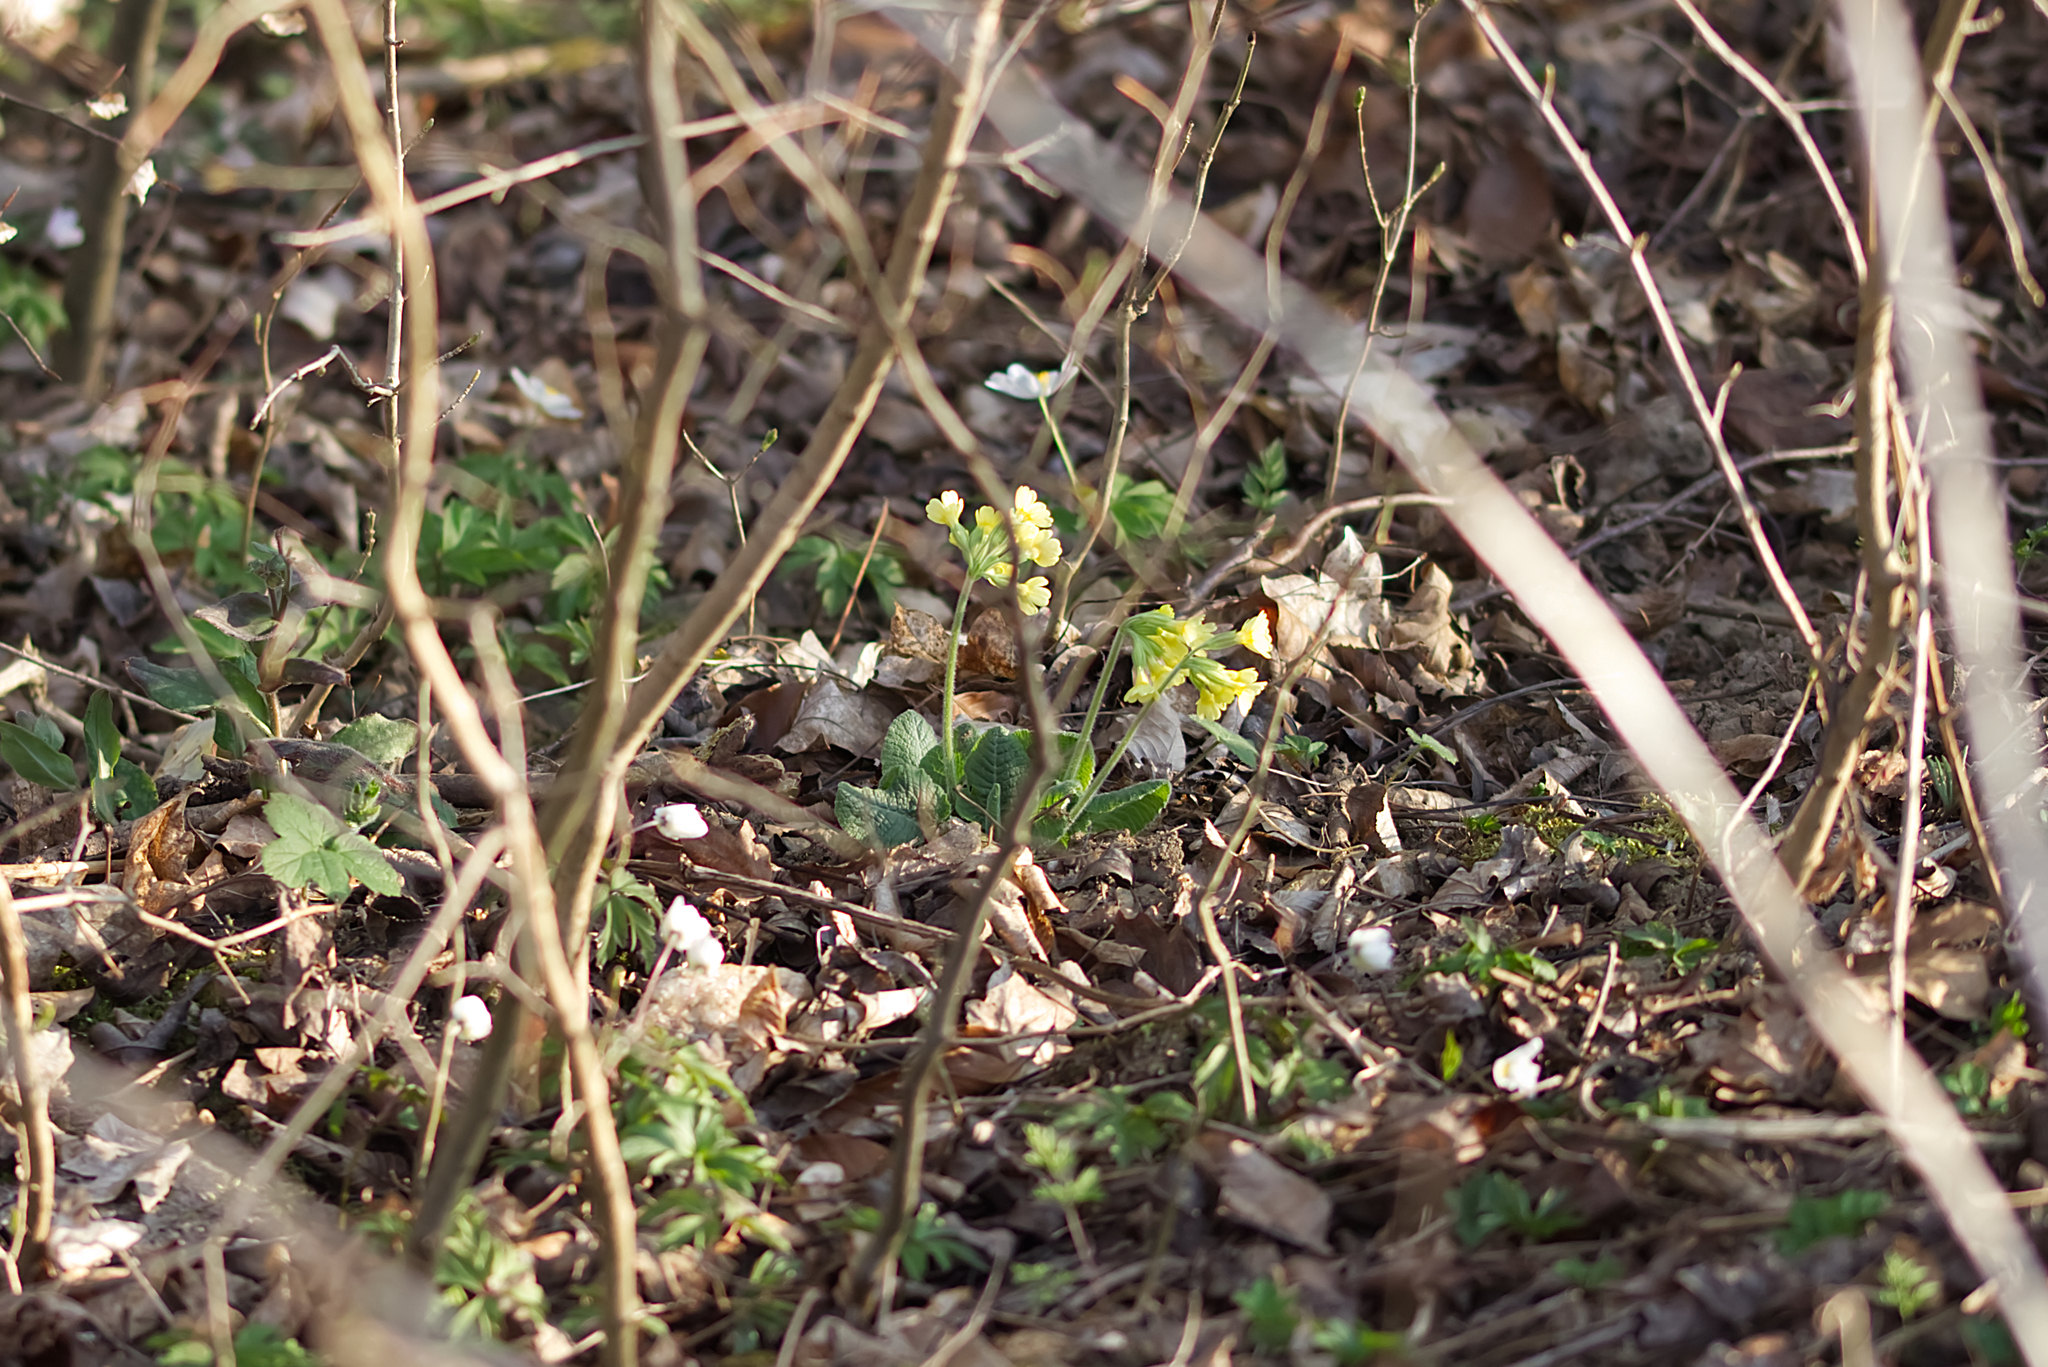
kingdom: Plantae
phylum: Tracheophyta
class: Magnoliopsida
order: Ericales
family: Primulaceae
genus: Primula
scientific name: Primula elatior
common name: Oxlip
